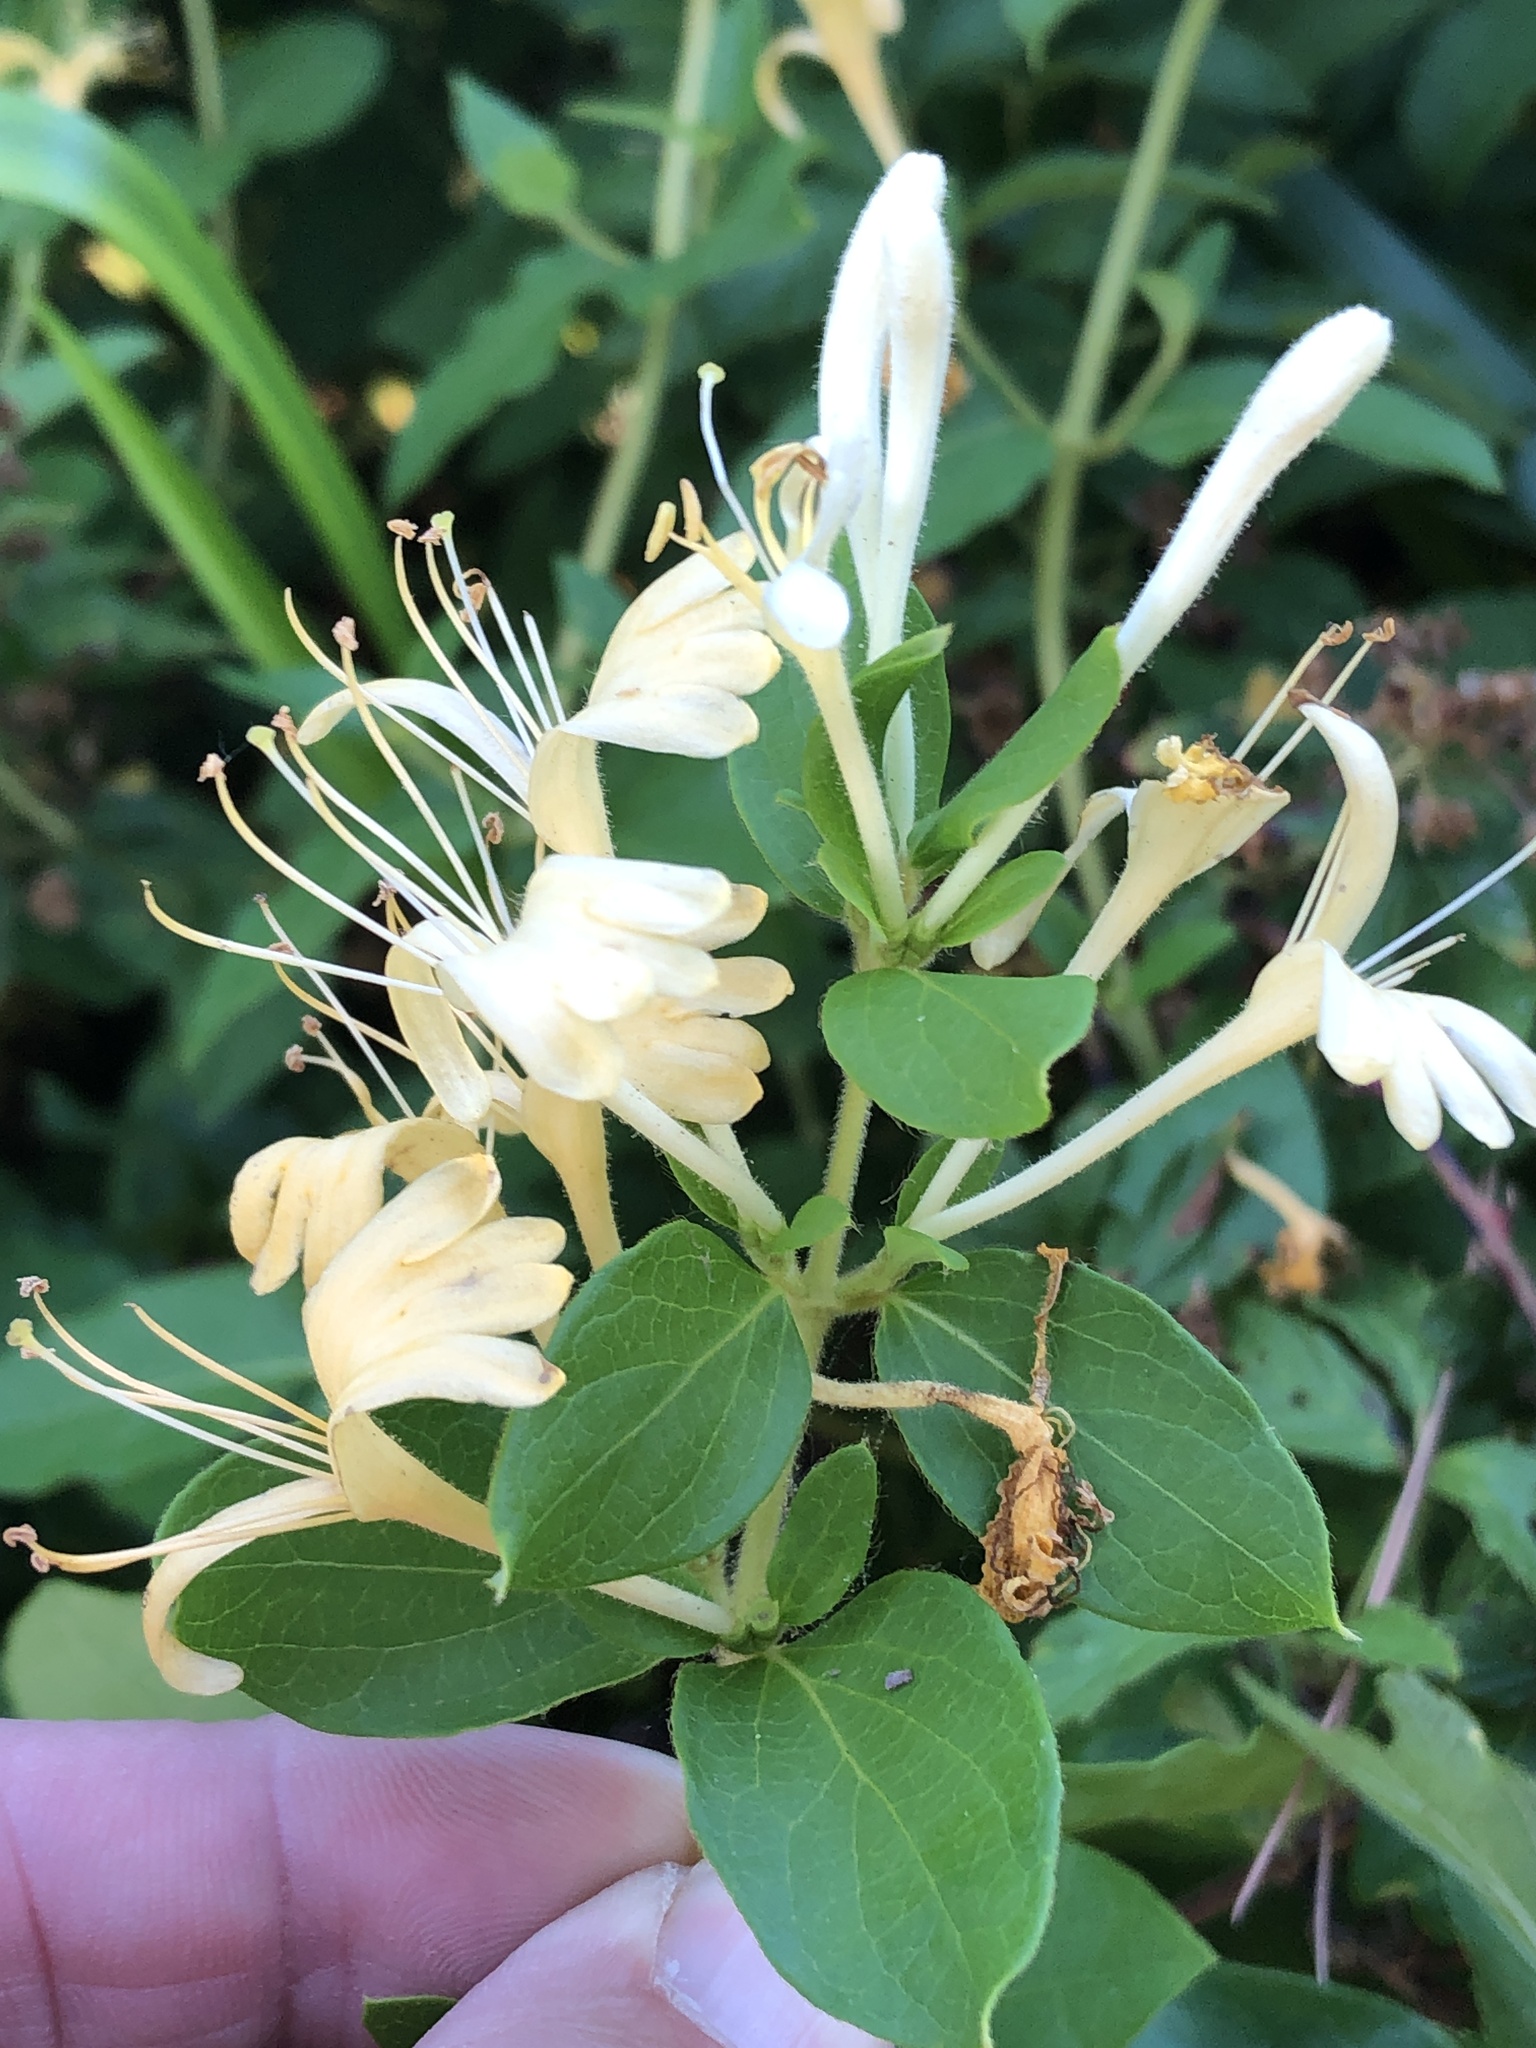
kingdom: Plantae
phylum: Tracheophyta
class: Magnoliopsida
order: Dipsacales
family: Caprifoliaceae
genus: Lonicera
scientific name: Lonicera japonica
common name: Japanese honeysuckle
